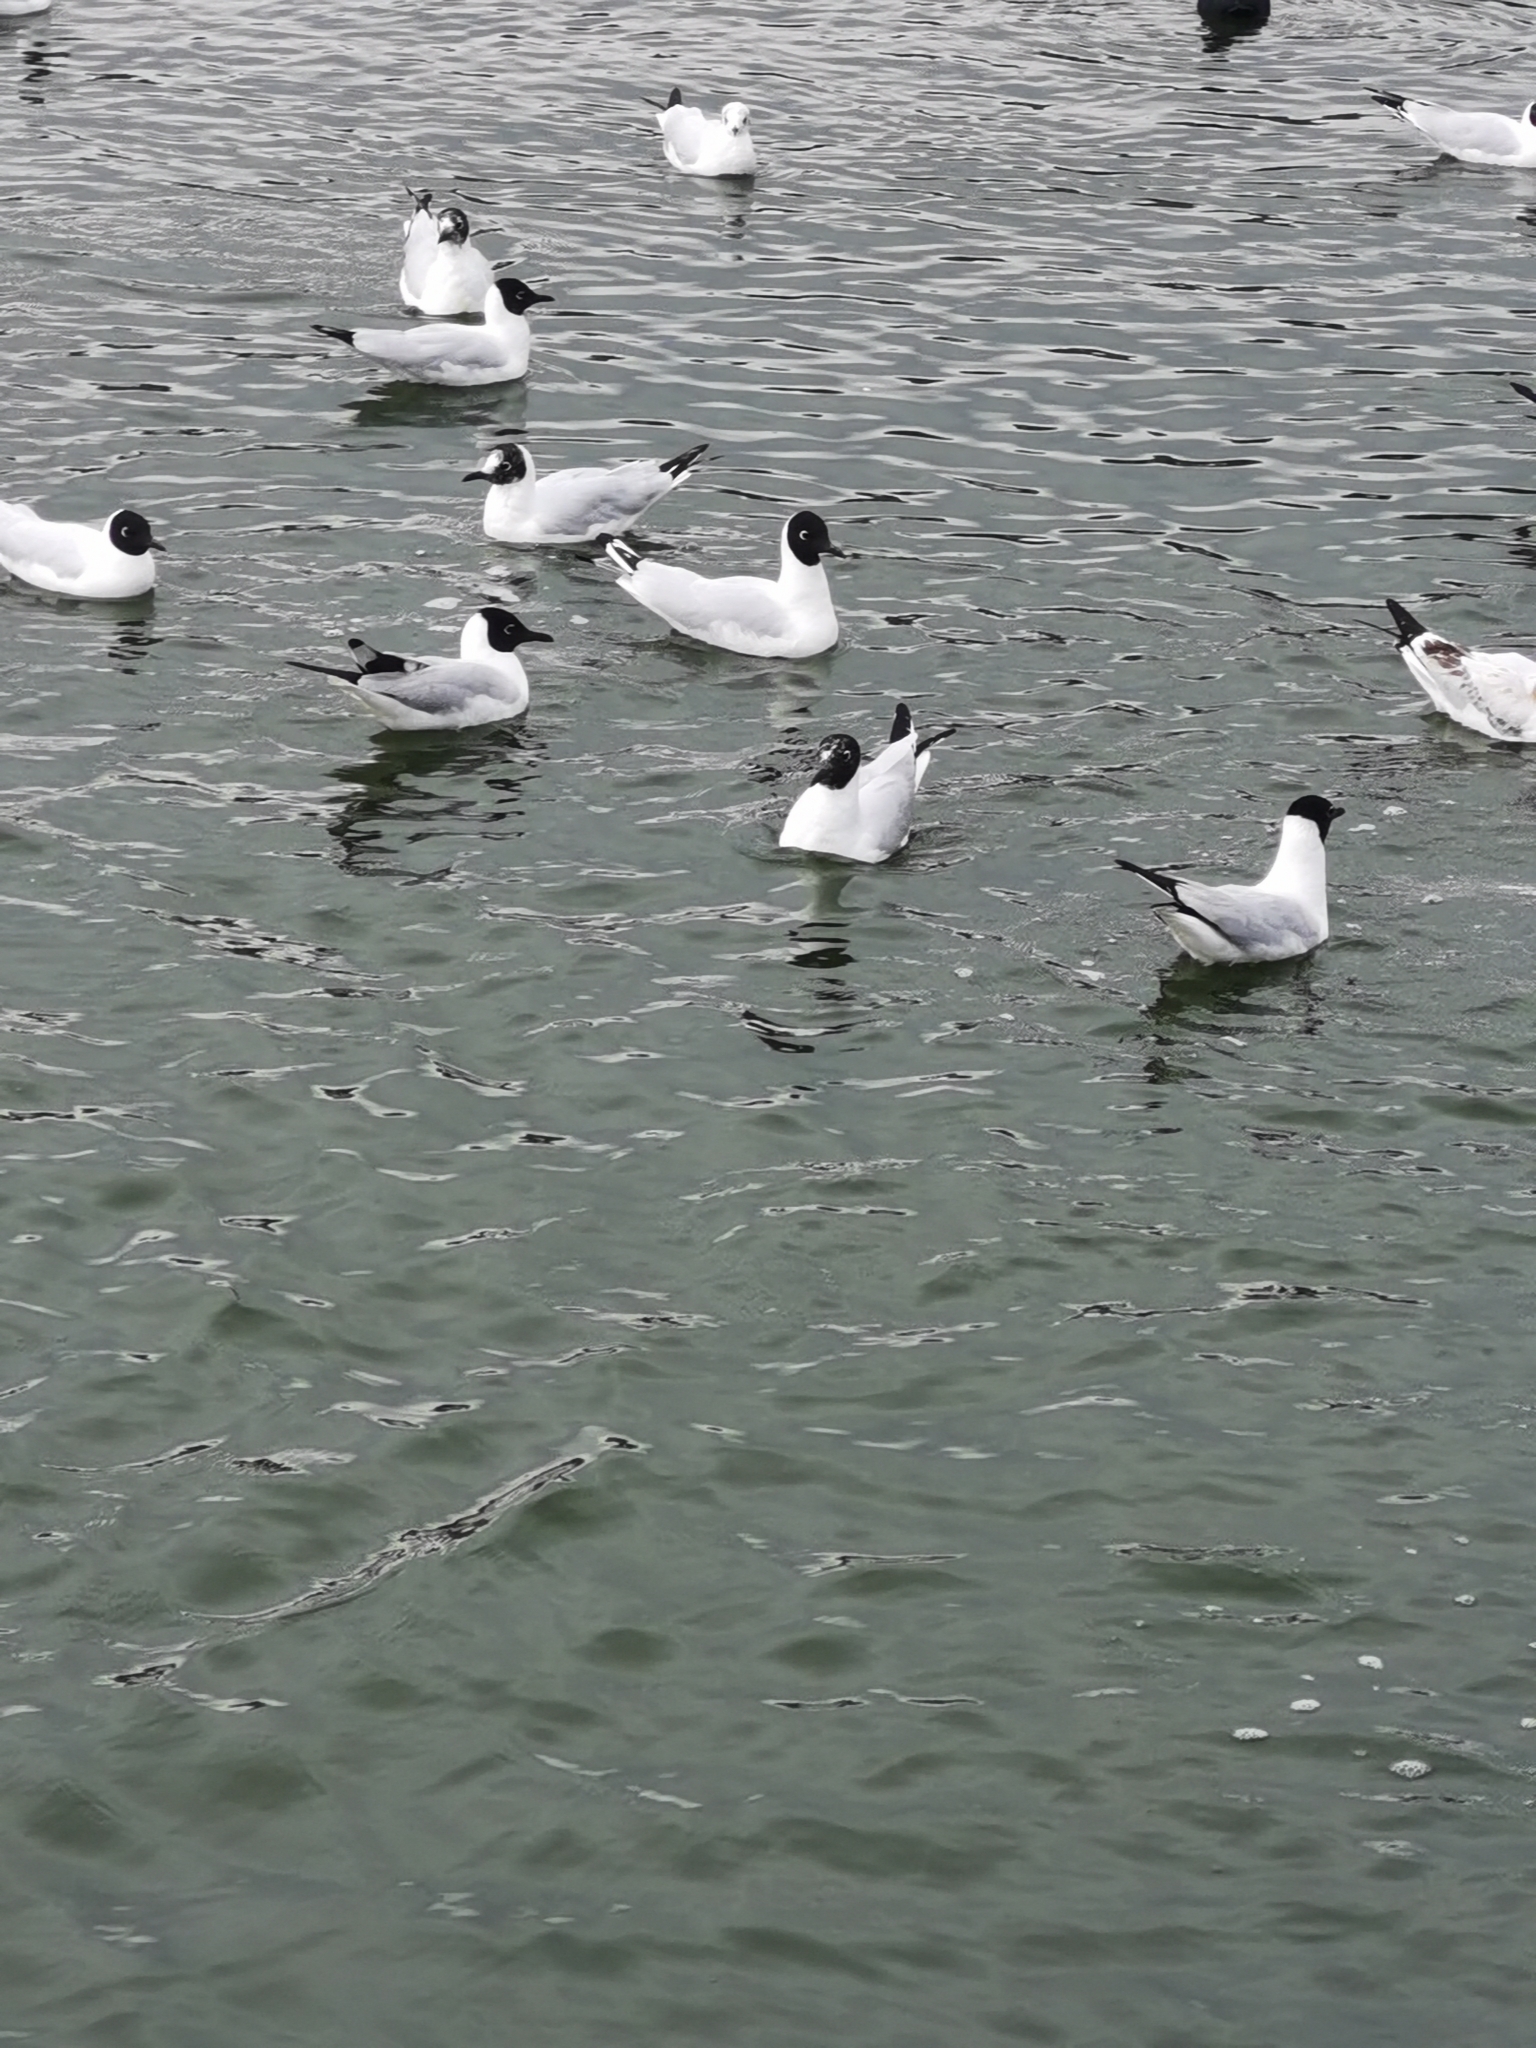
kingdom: Animalia
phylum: Chordata
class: Aves
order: Charadriiformes
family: Laridae
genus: Chroicocephalus
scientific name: Chroicocephalus serranus
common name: Andean gull
